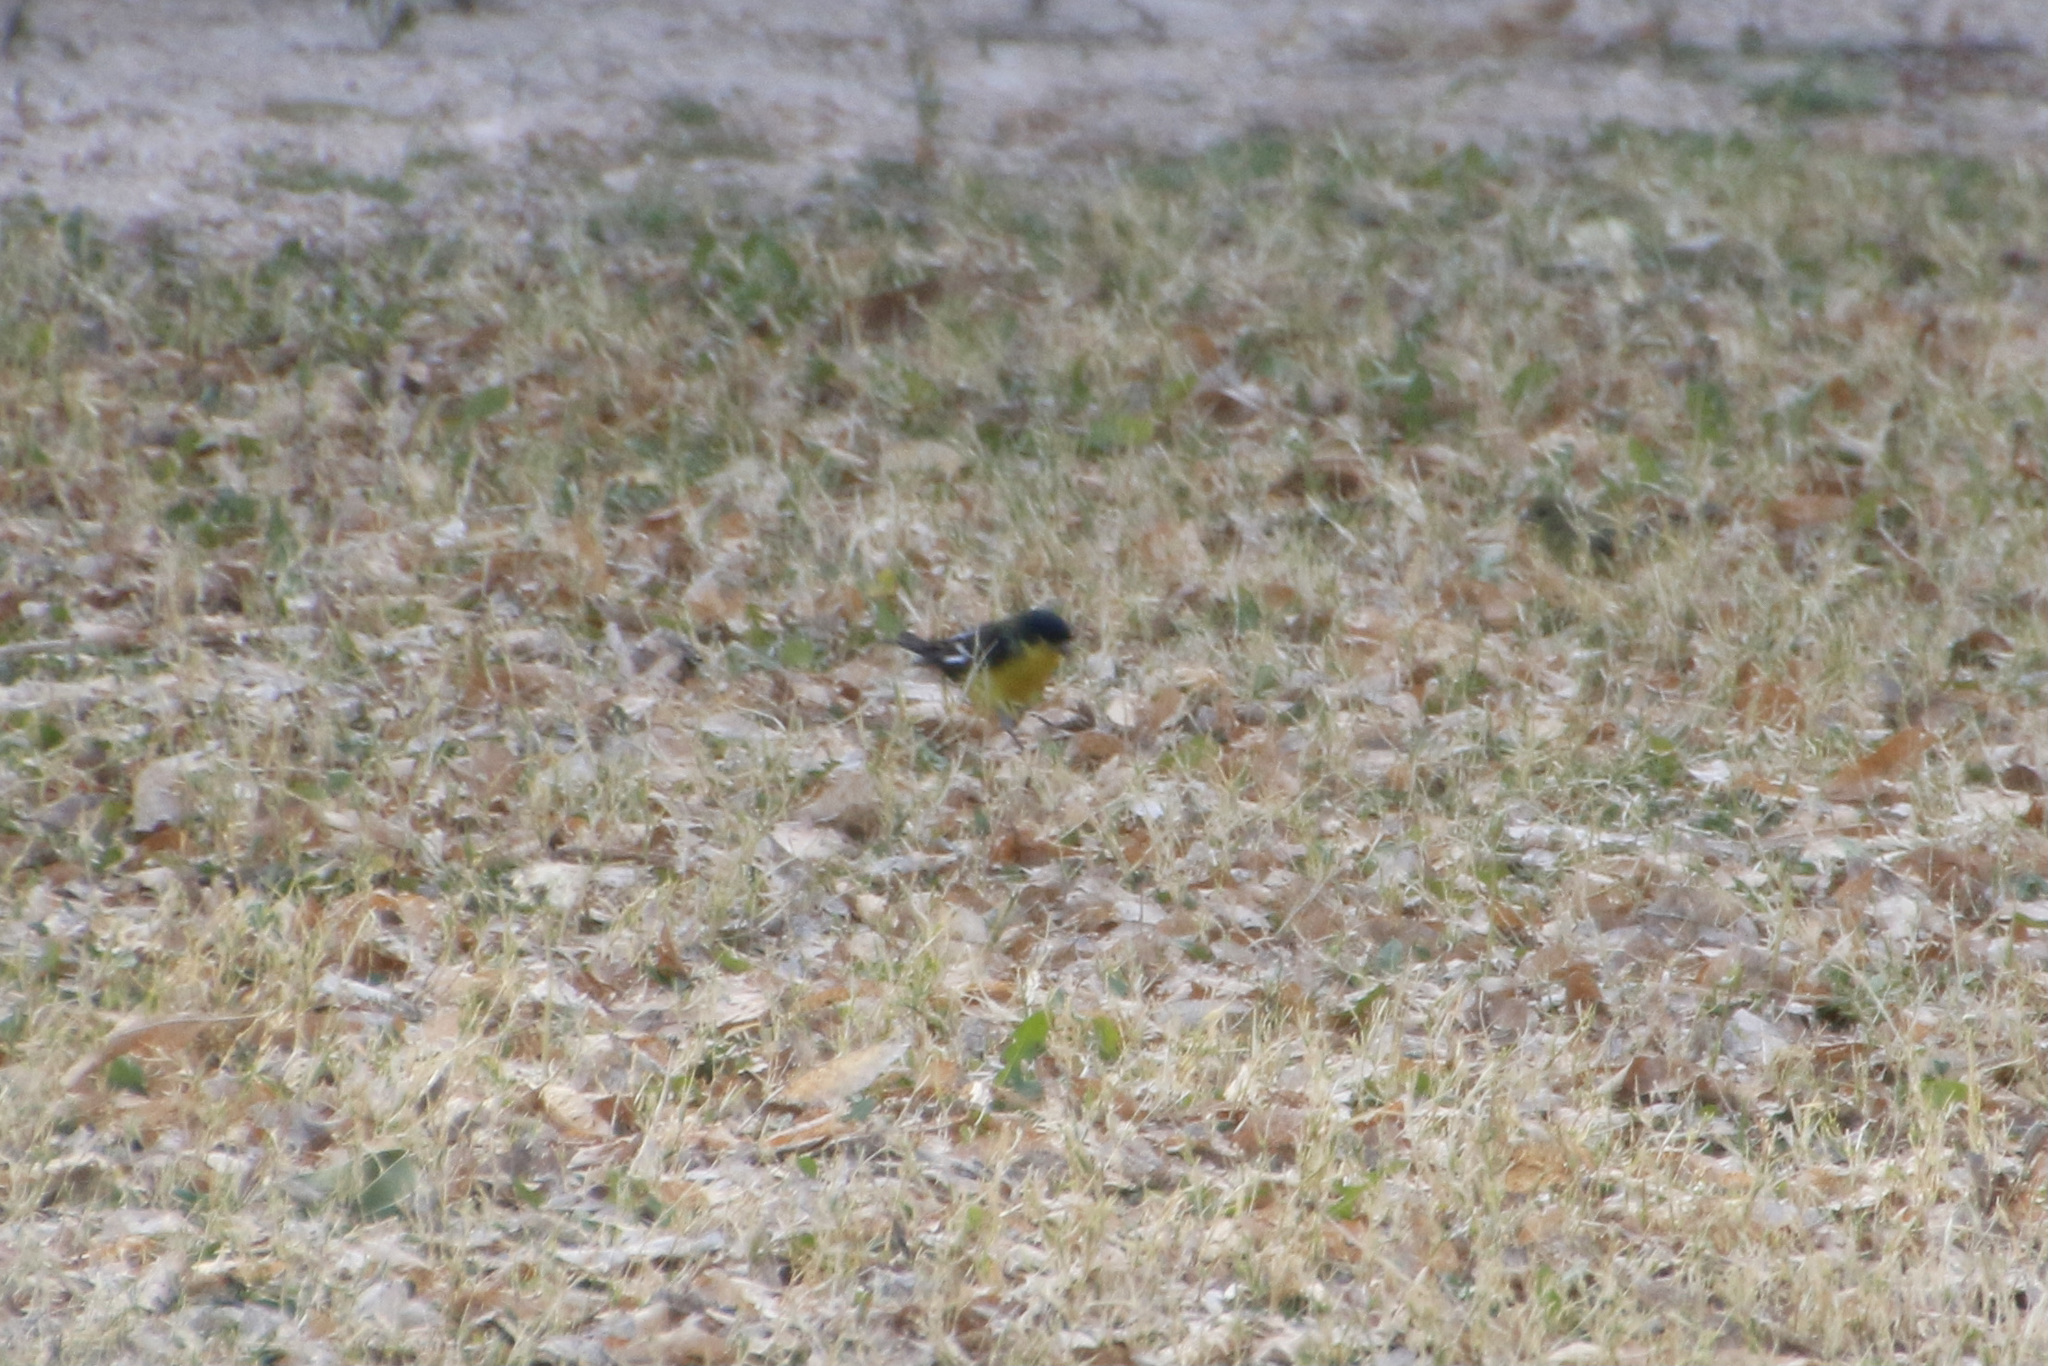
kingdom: Animalia
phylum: Chordata
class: Aves
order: Passeriformes
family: Fringillidae
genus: Spinus
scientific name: Spinus psaltria
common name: Lesser goldfinch
